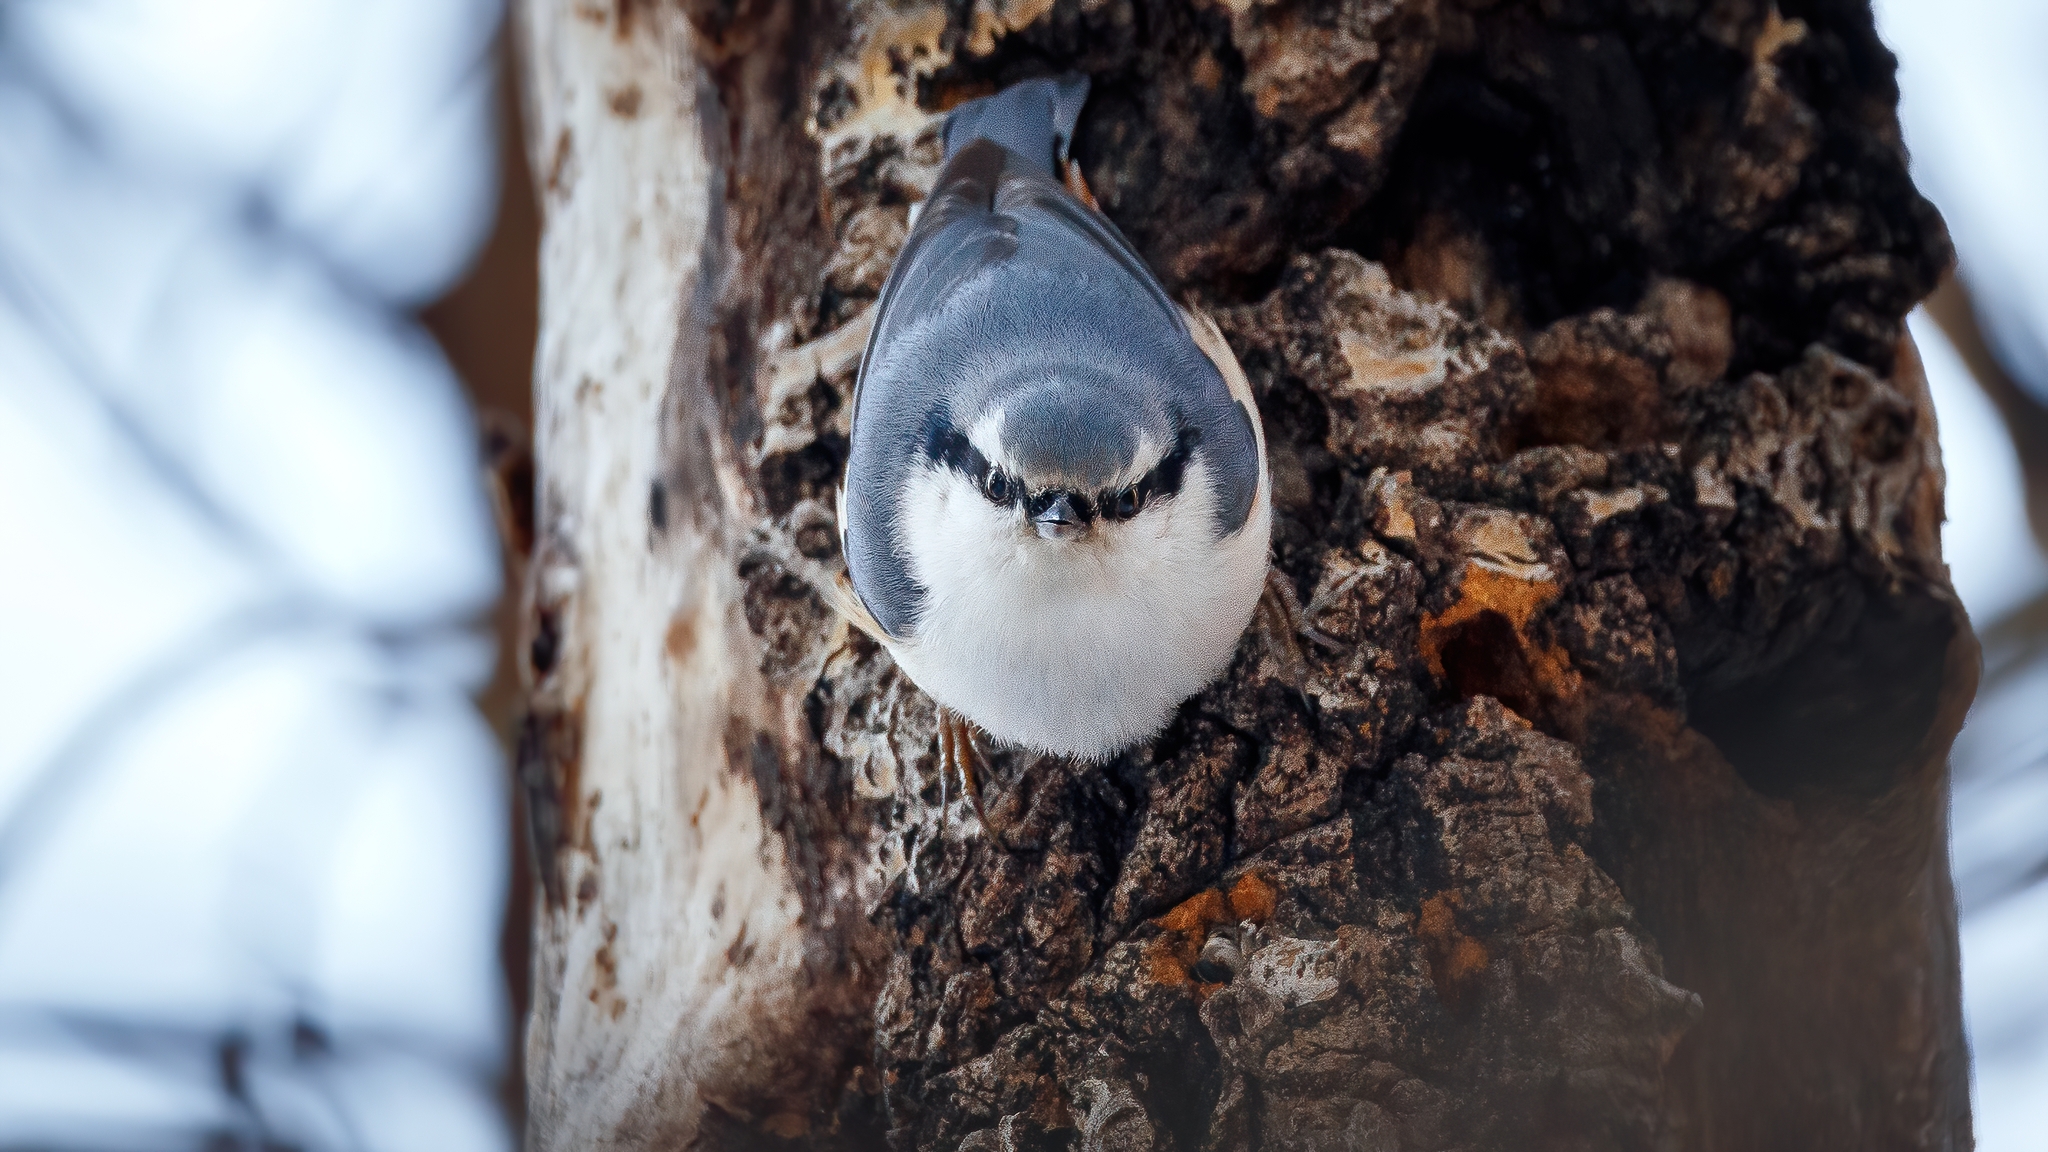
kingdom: Animalia
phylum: Chordata
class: Aves
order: Passeriformes
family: Sittidae
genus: Sitta
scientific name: Sitta europaea
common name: Eurasian nuthatch
